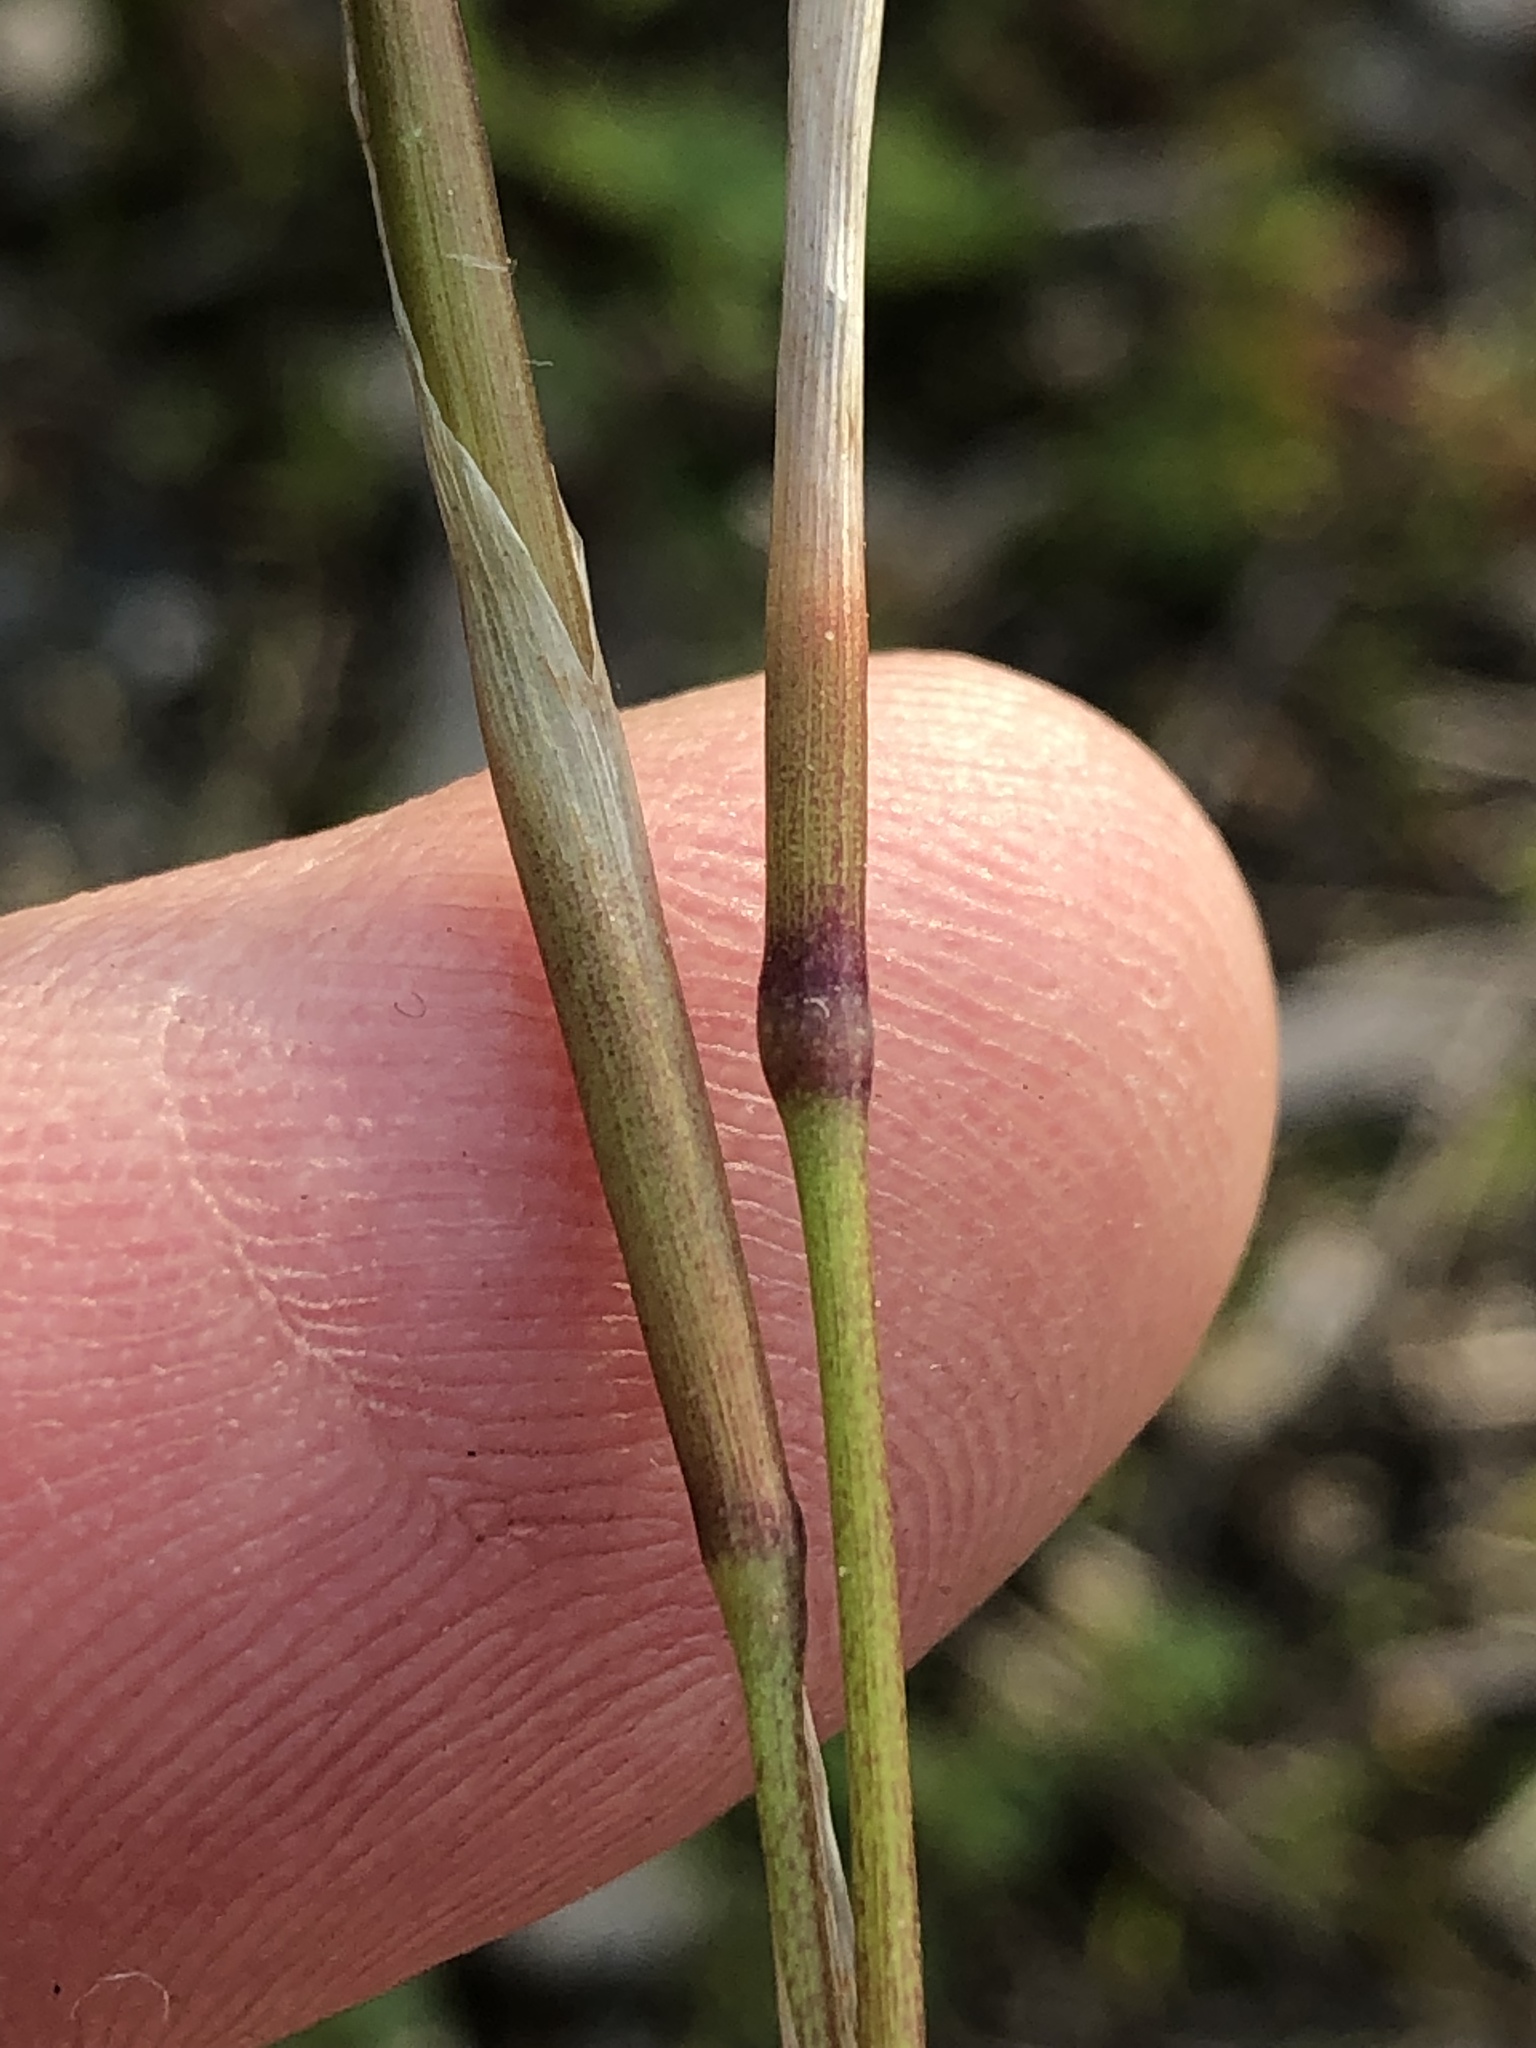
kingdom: Plantae
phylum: Tracheophyta
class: Liliopsida
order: Asparagales
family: Iridaceae
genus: Moraea
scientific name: Moraea polyanthos
